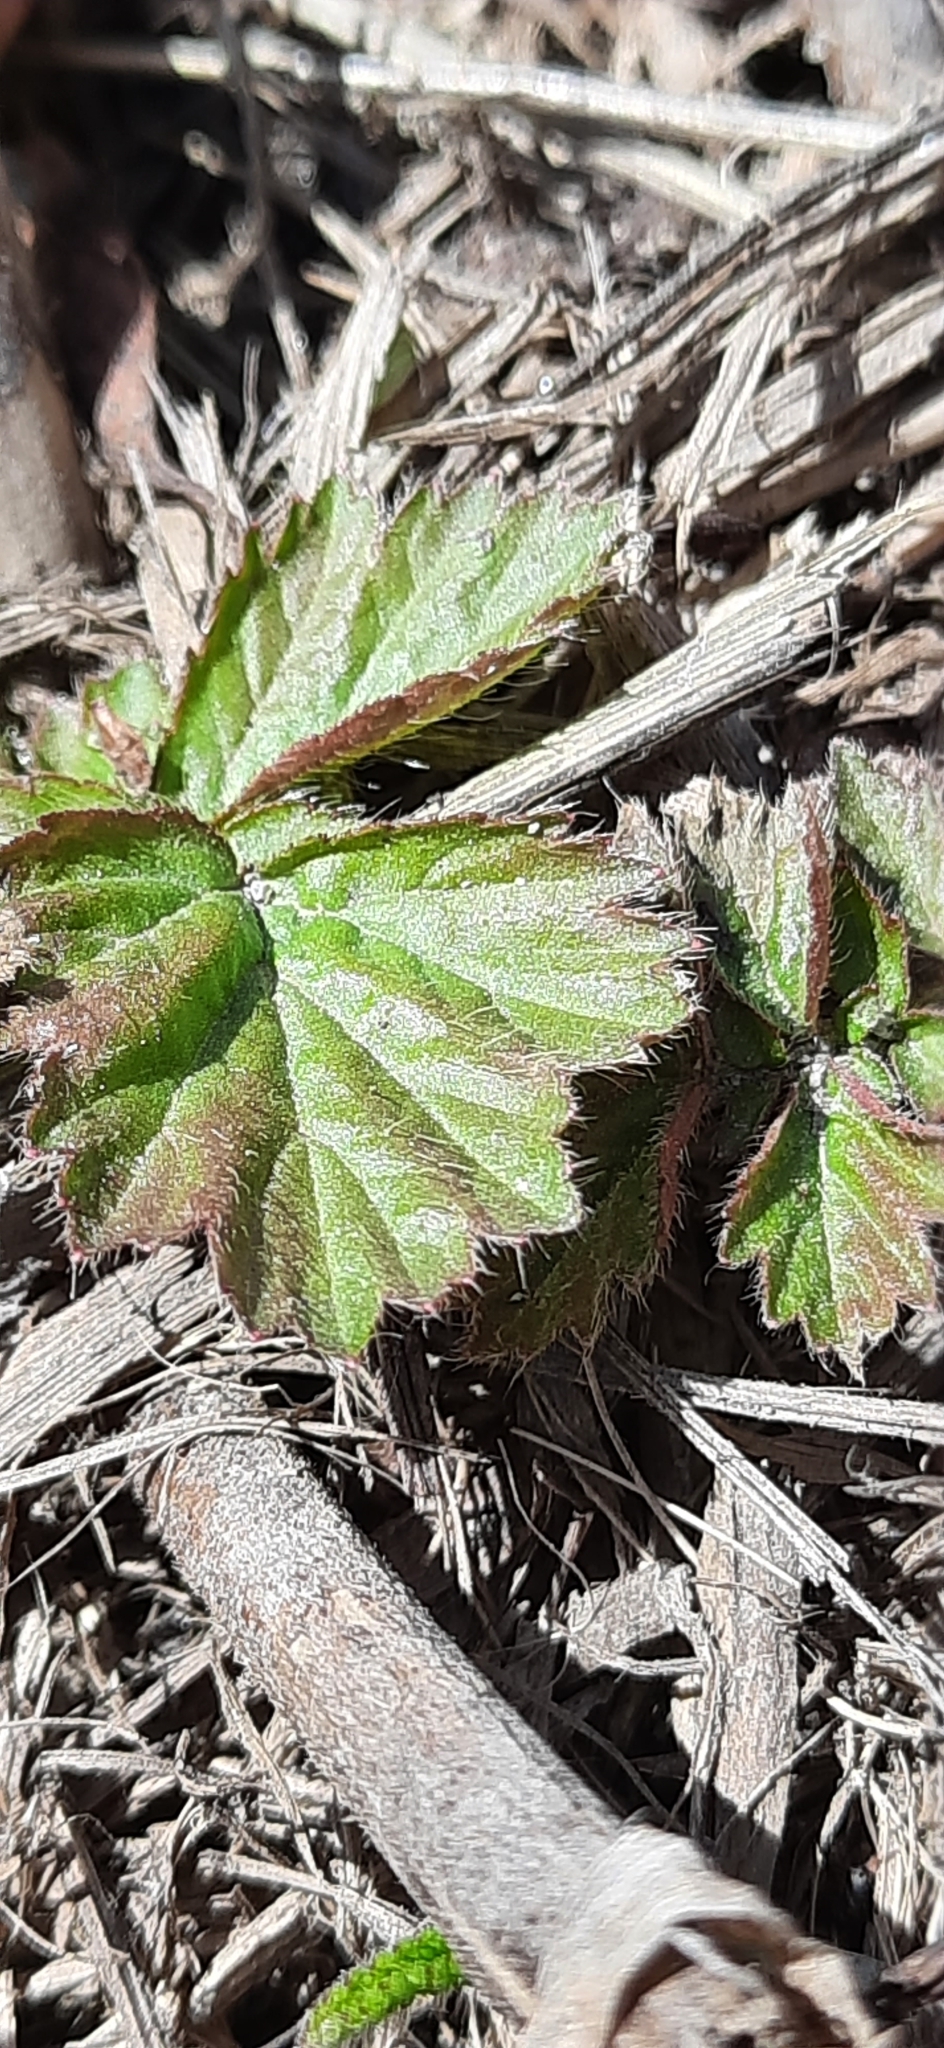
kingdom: Plantae
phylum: Tracheophyta
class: Magnoliopsida
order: Rosales
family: Rosaceae
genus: Geum
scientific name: Geum rivale
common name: Water avens
